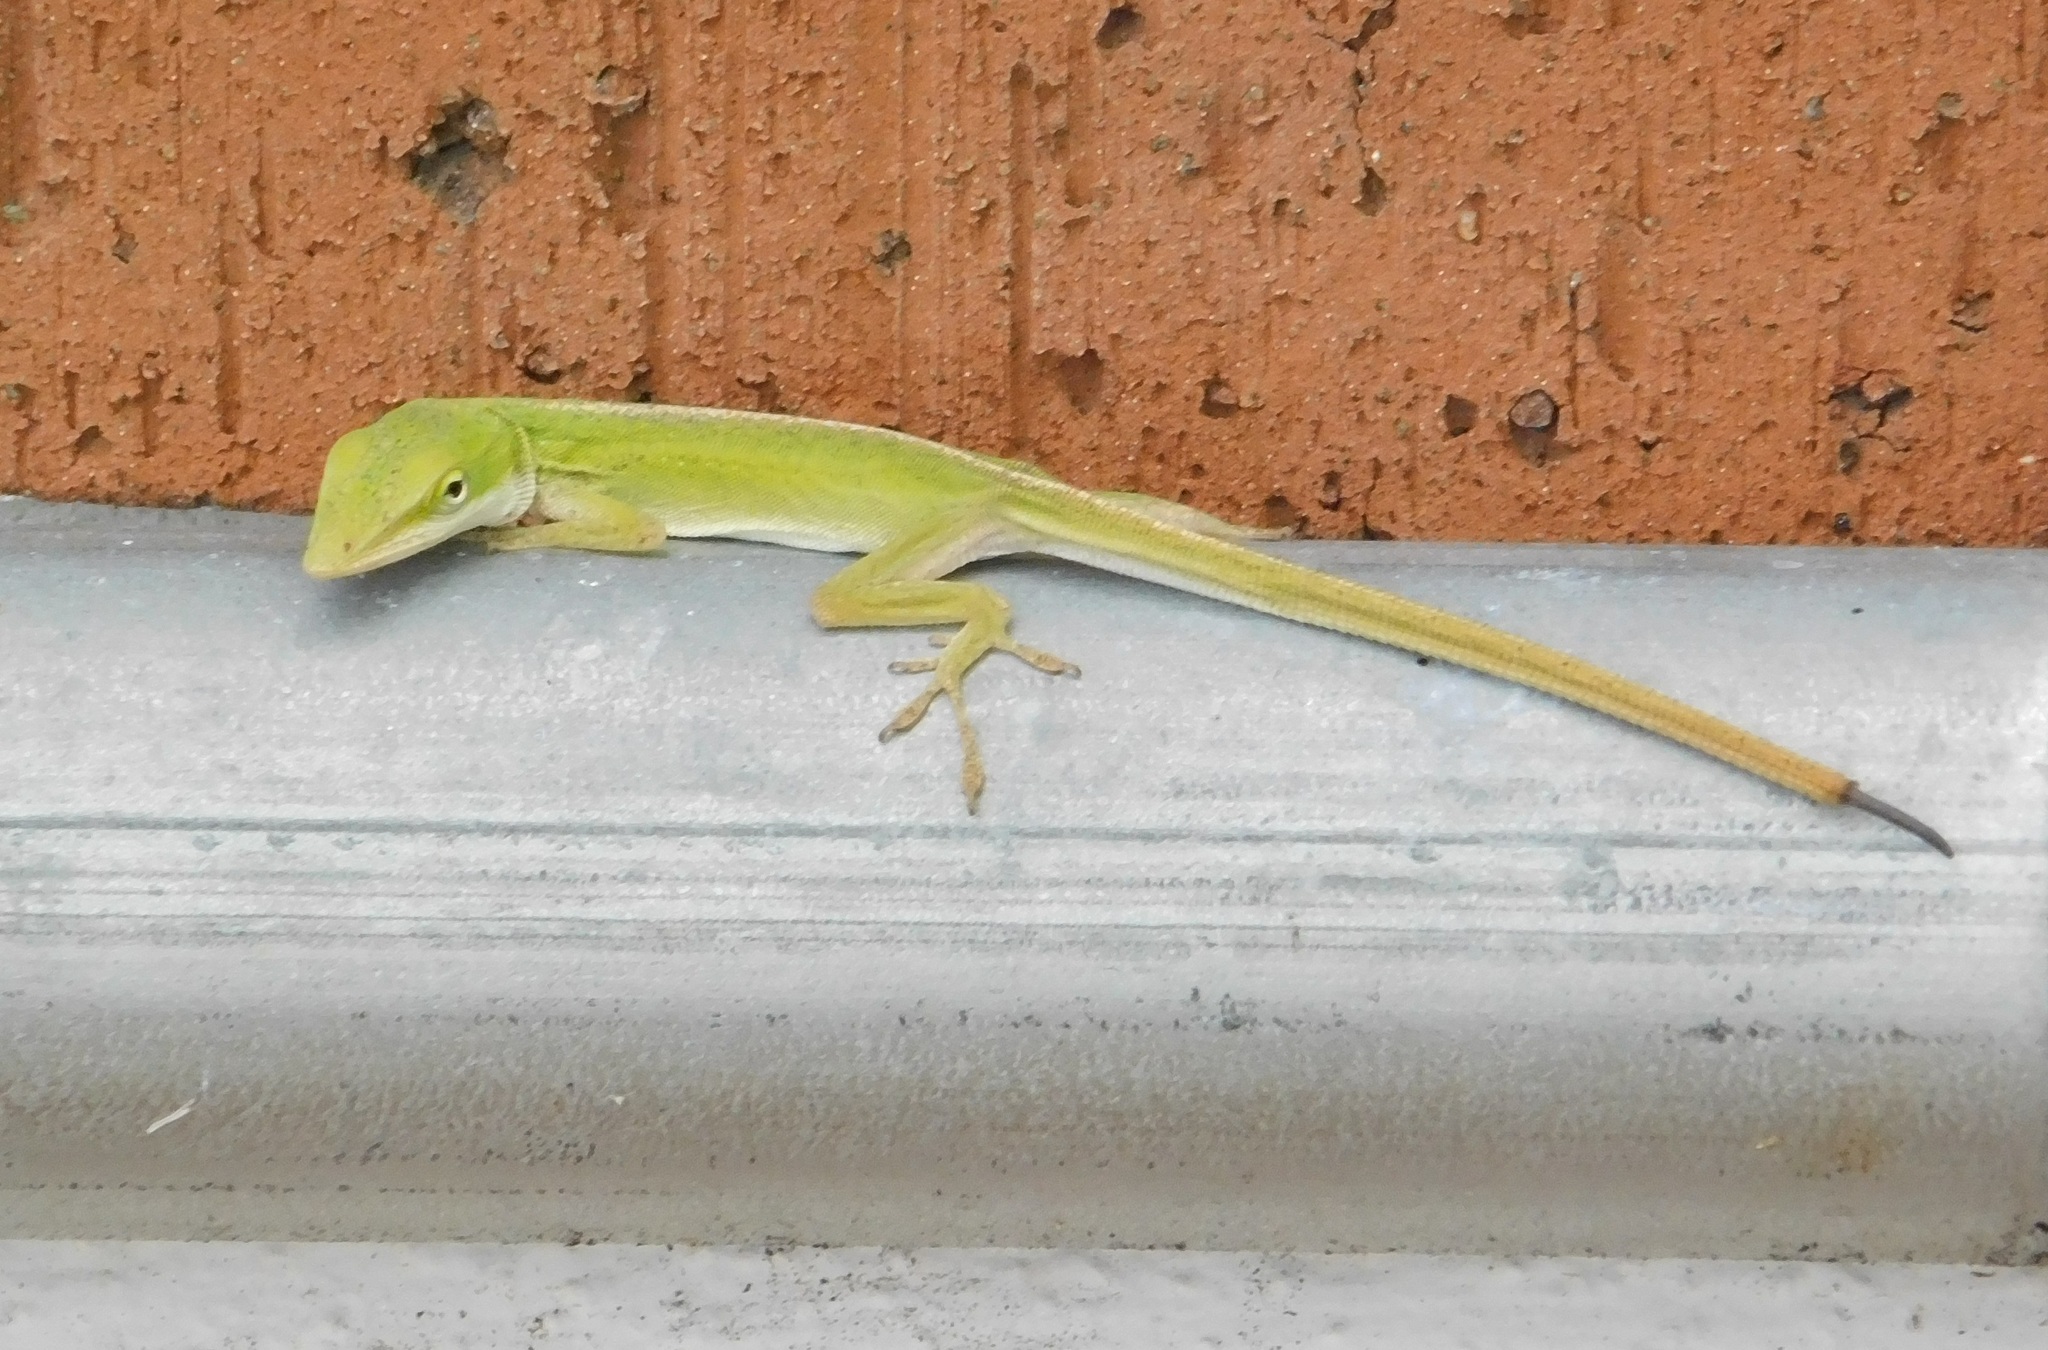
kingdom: Animalia
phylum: Chordata
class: Squamata
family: Dactyloidae
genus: Anolis
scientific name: Anolis carolinensis
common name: Green anole
